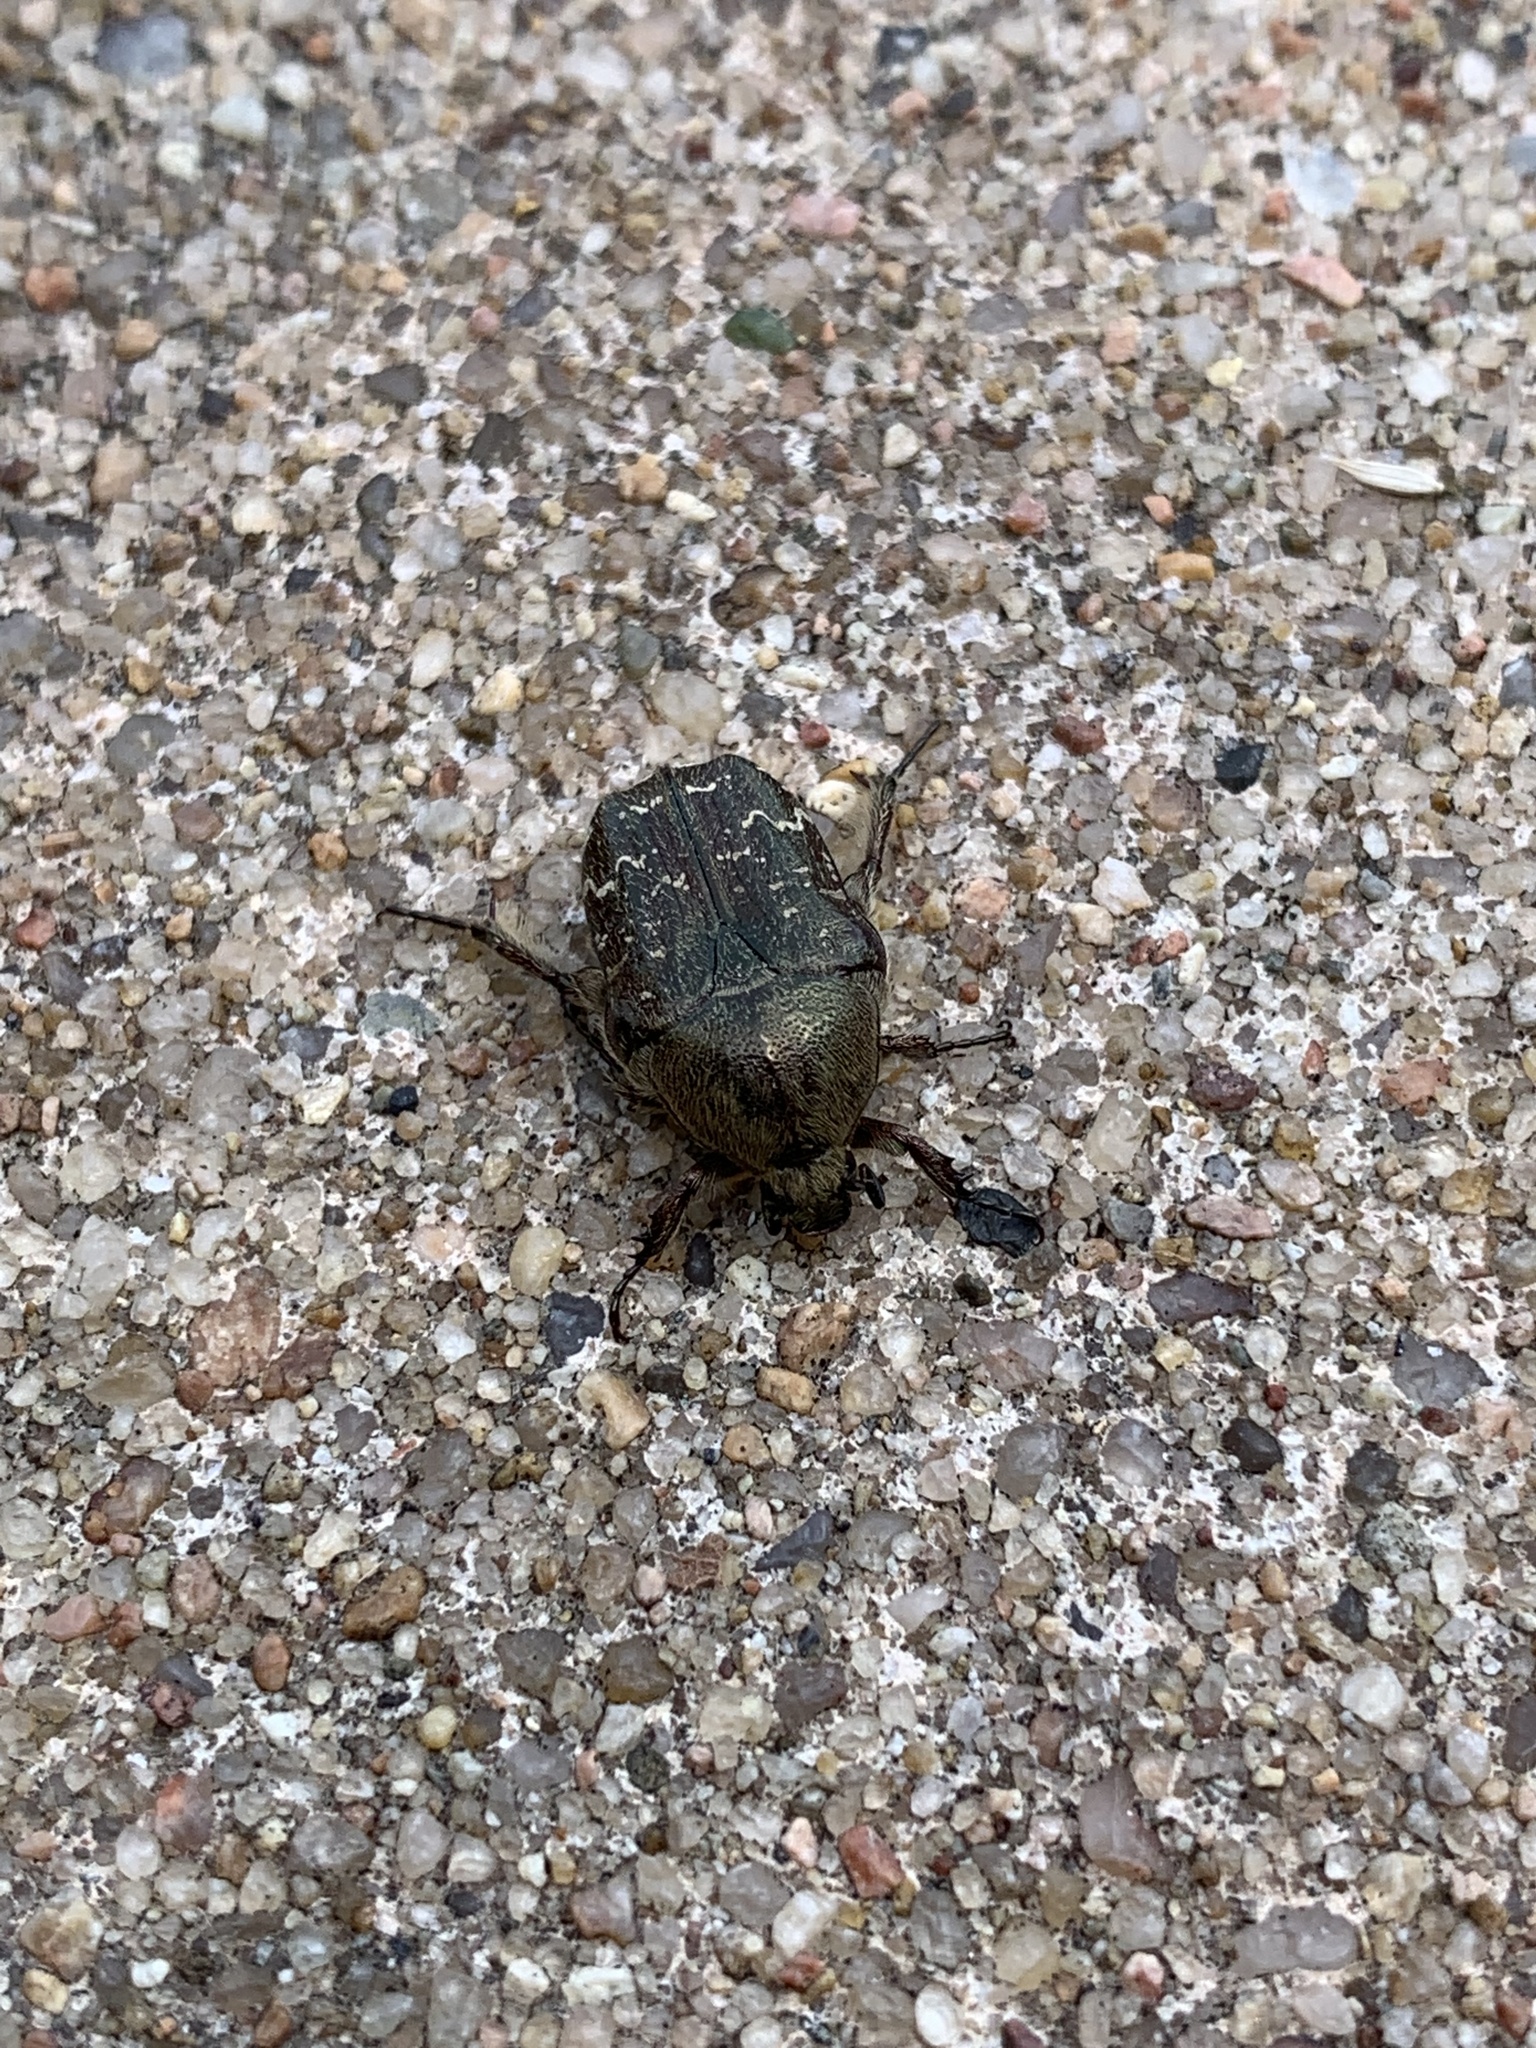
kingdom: Animalia
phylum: Arthropoda
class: Insecta
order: Coleoptera
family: Scarabaeidae
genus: Euphoria
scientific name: Euphoria sepulcralis
